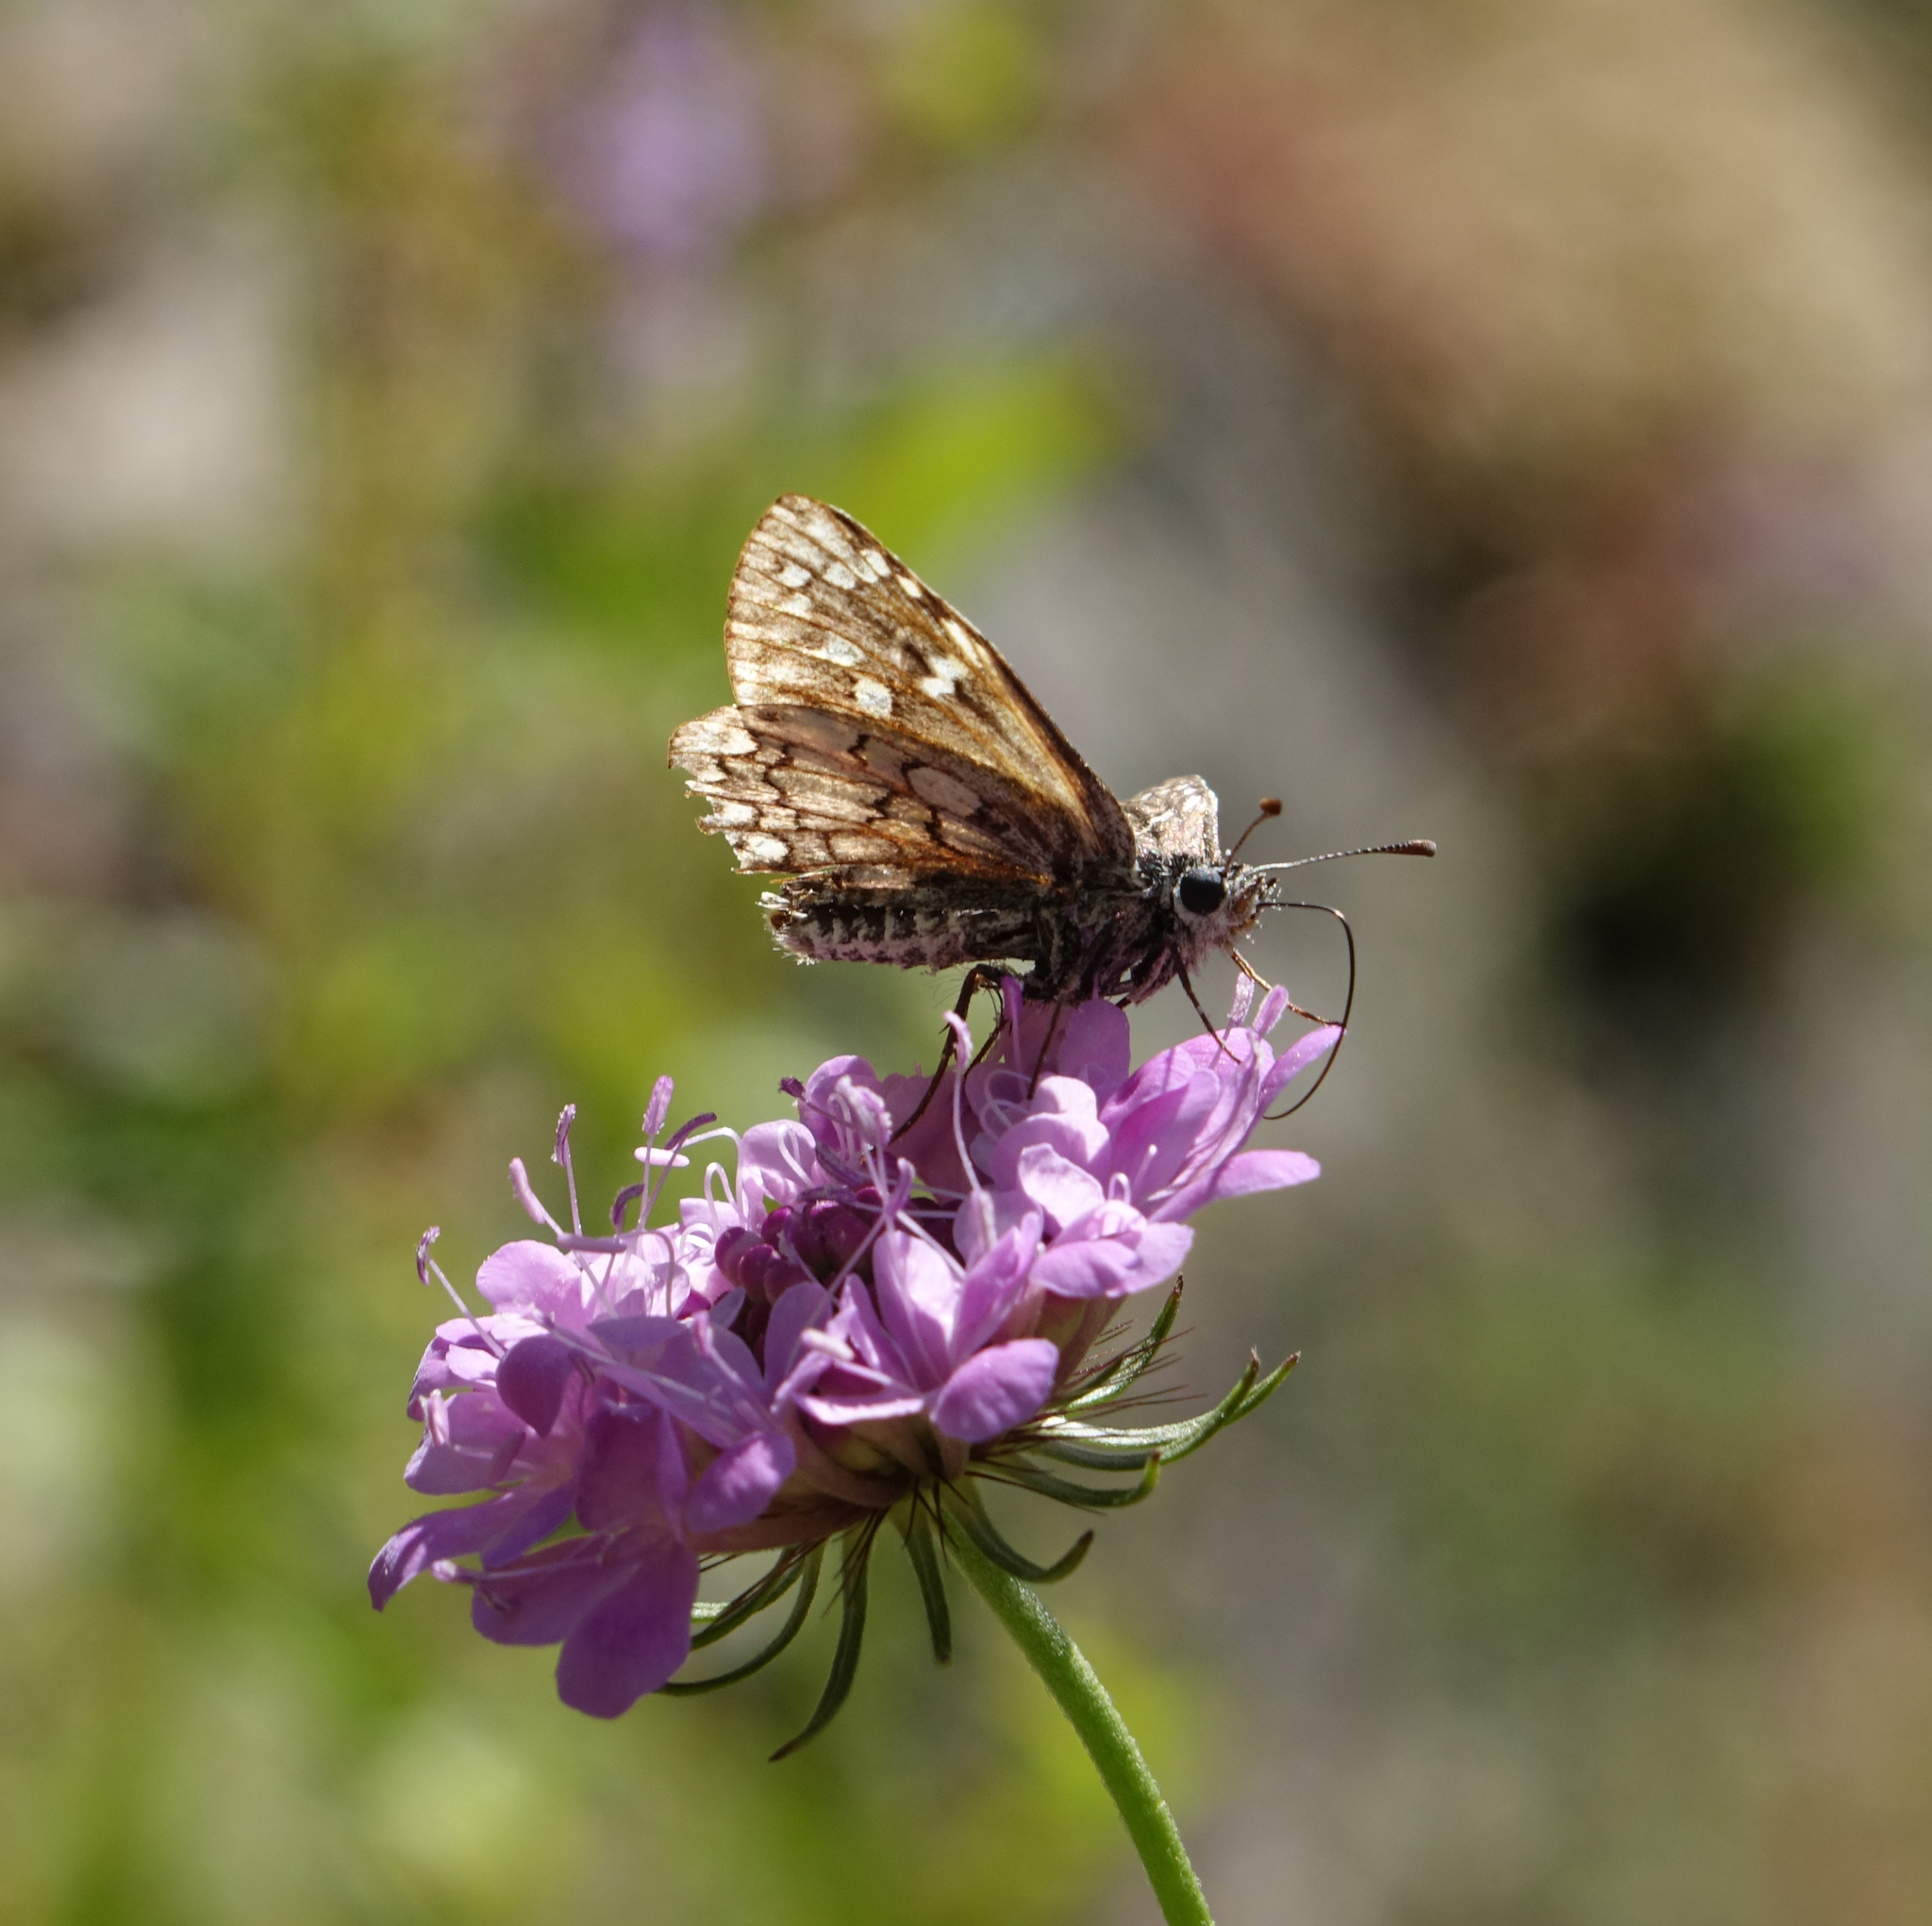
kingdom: Plantae
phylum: Tracheophyta
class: Magnoliopsida
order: Dipsacales
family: Caprifoliaceae
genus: Scabiosa
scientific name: Scabiosa owerinii
